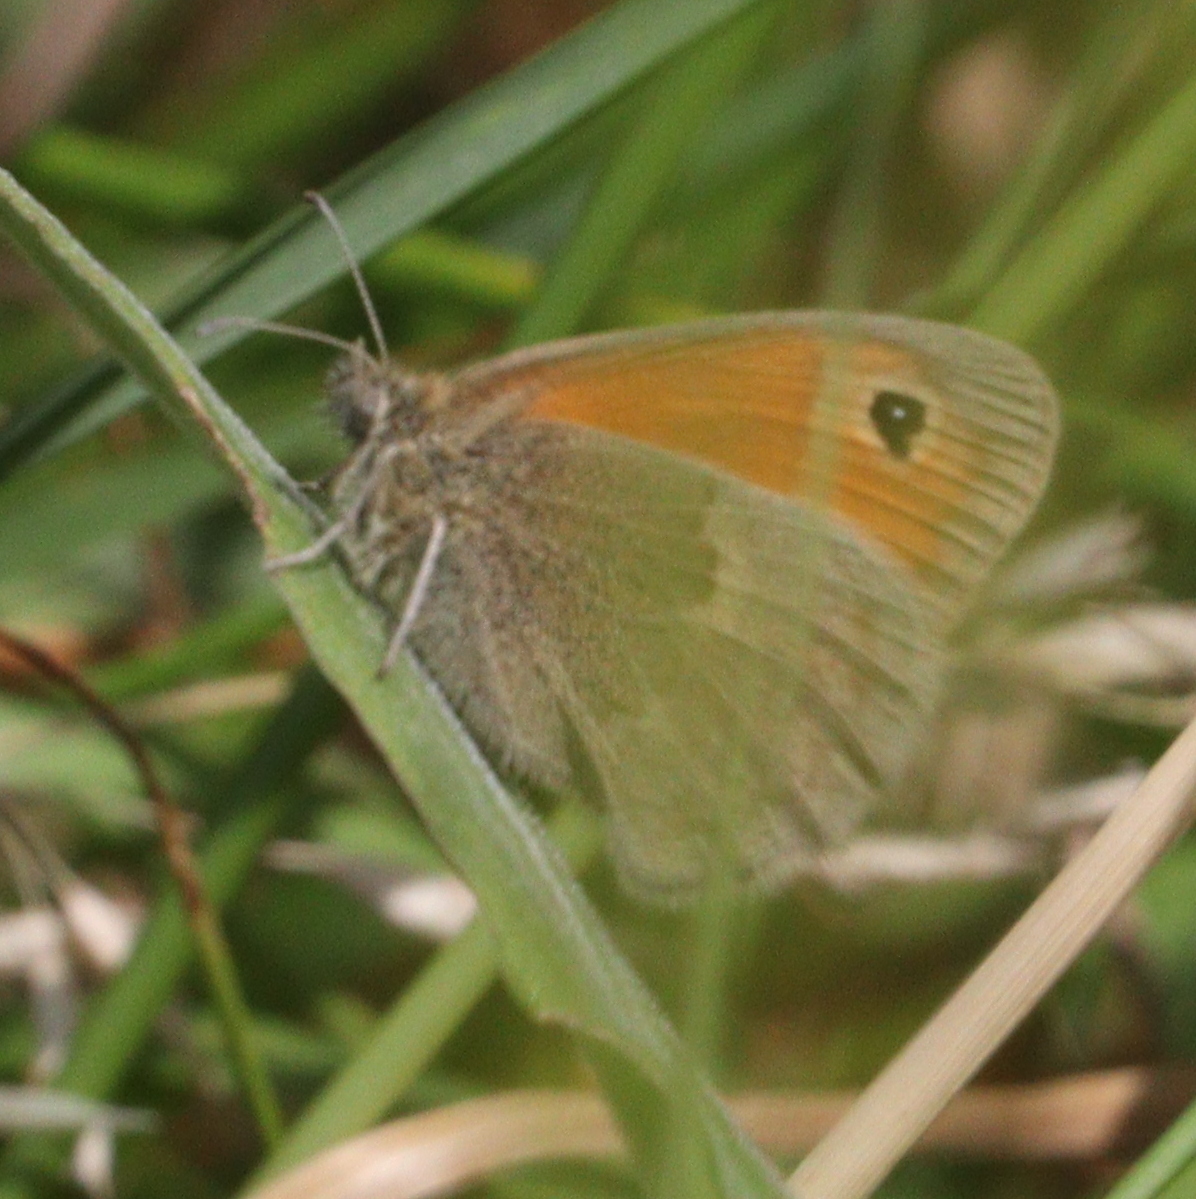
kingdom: Animalia
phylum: Arthropoda
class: Insecta
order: Lepidoptera
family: Nymphalidae
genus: Coenonympha
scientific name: Coenonympha pamphilus
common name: Small heath
